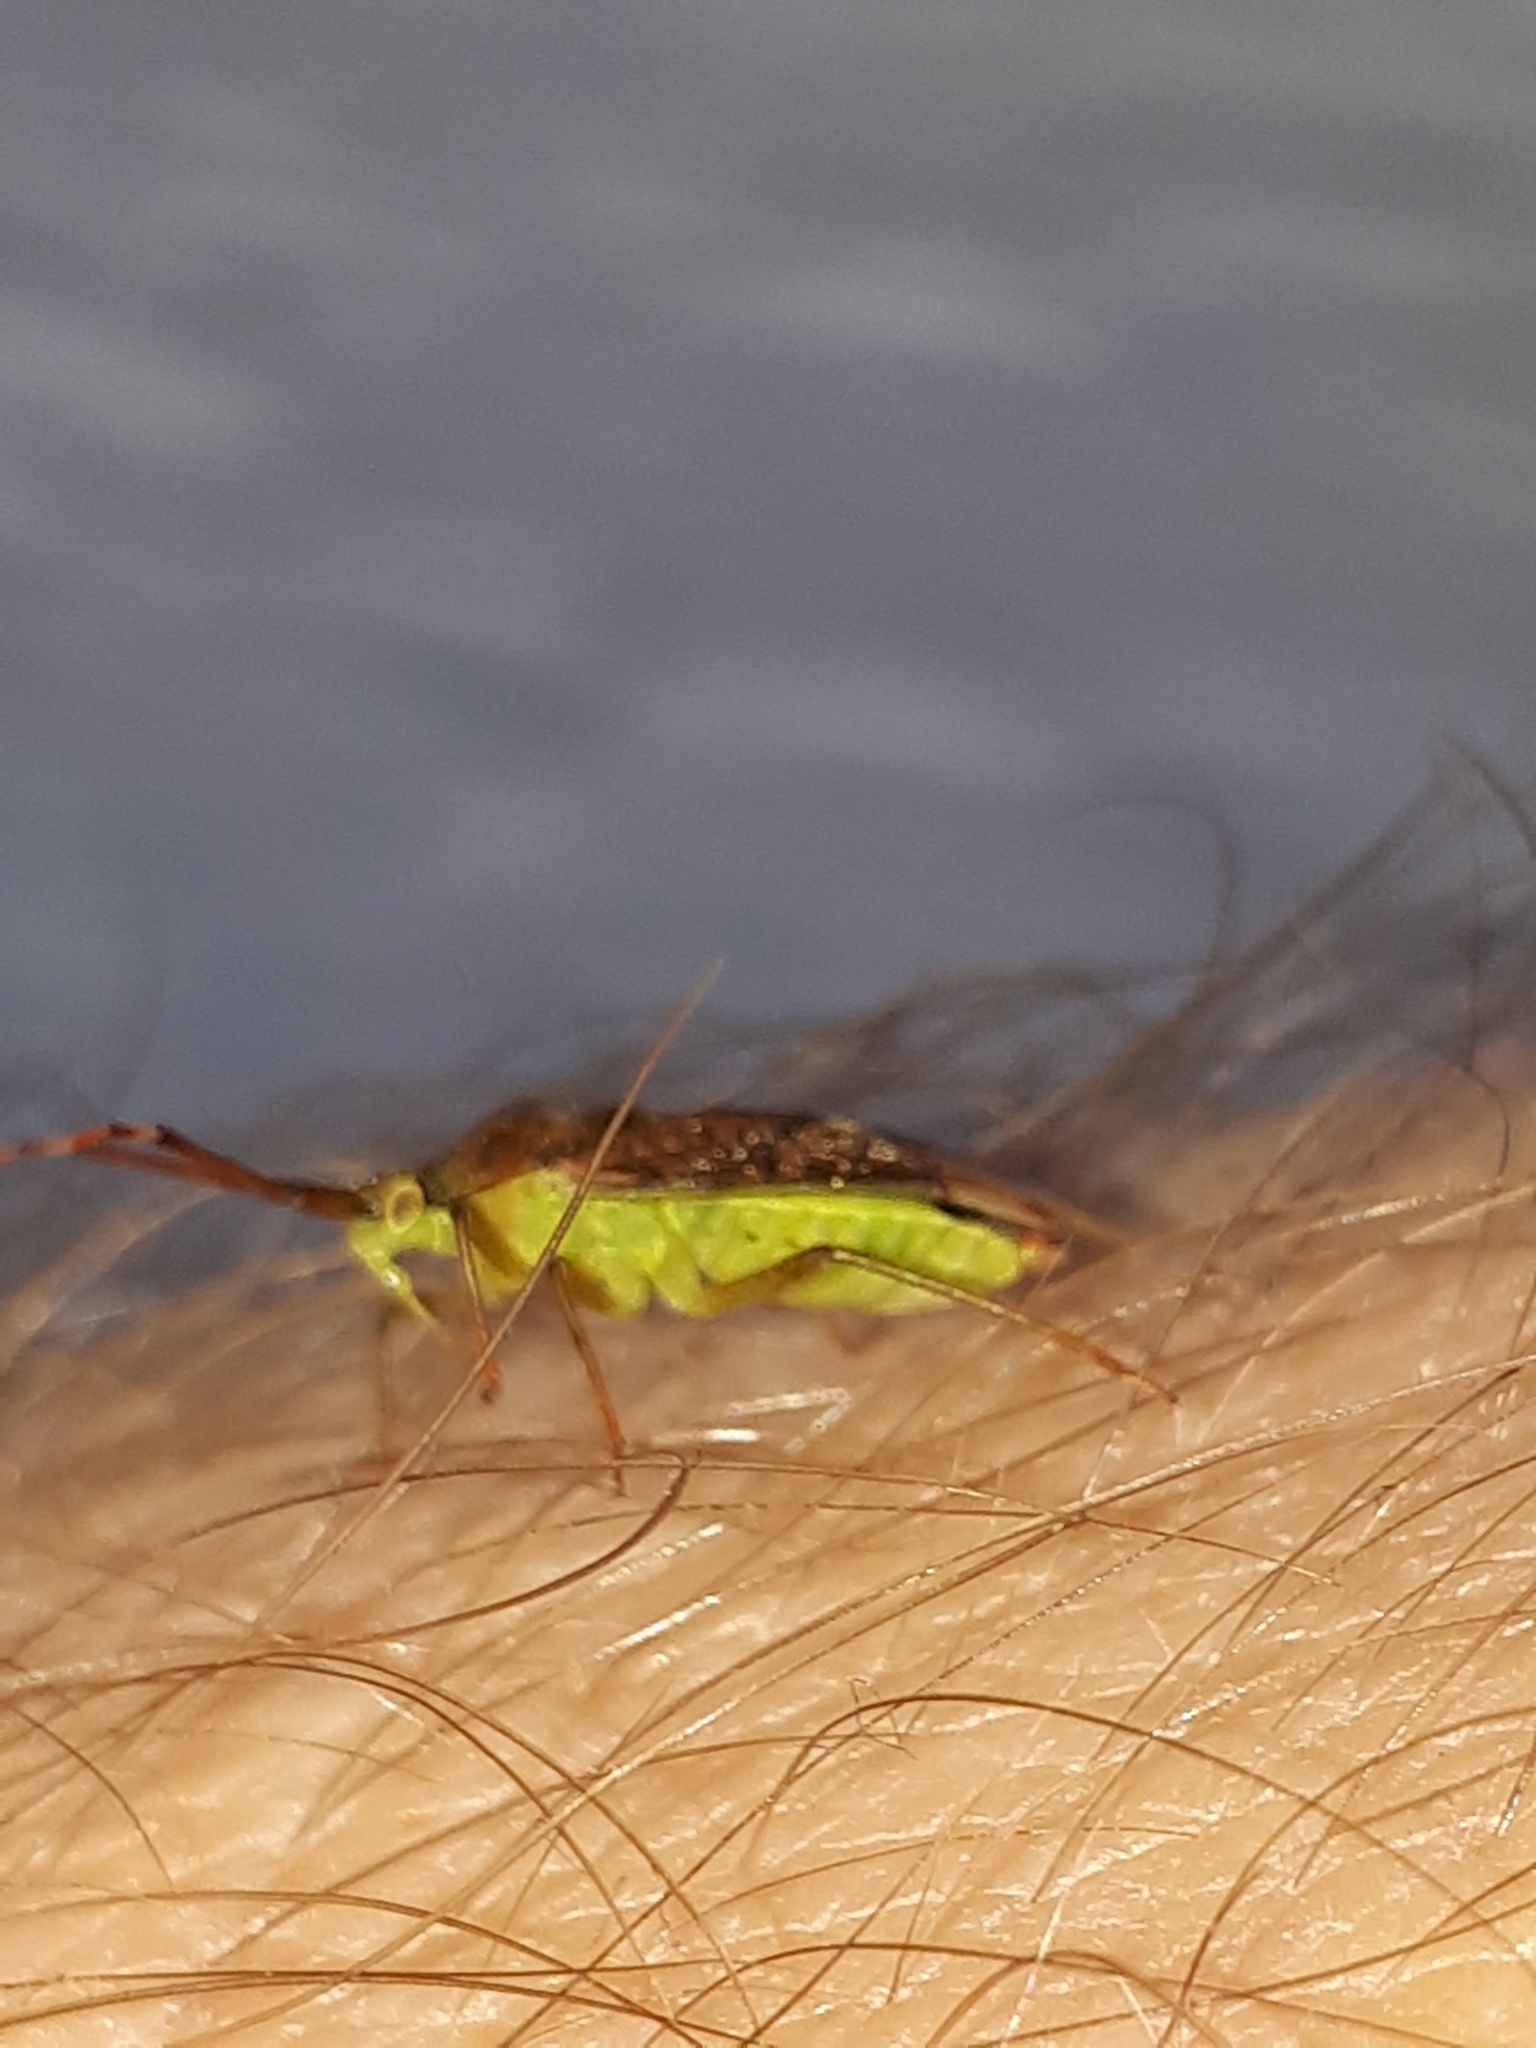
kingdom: Animalia
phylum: Arthropoda
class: Insecta
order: Hemiptera
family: Miridae
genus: Pantilius
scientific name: Pantilius tunicatus
